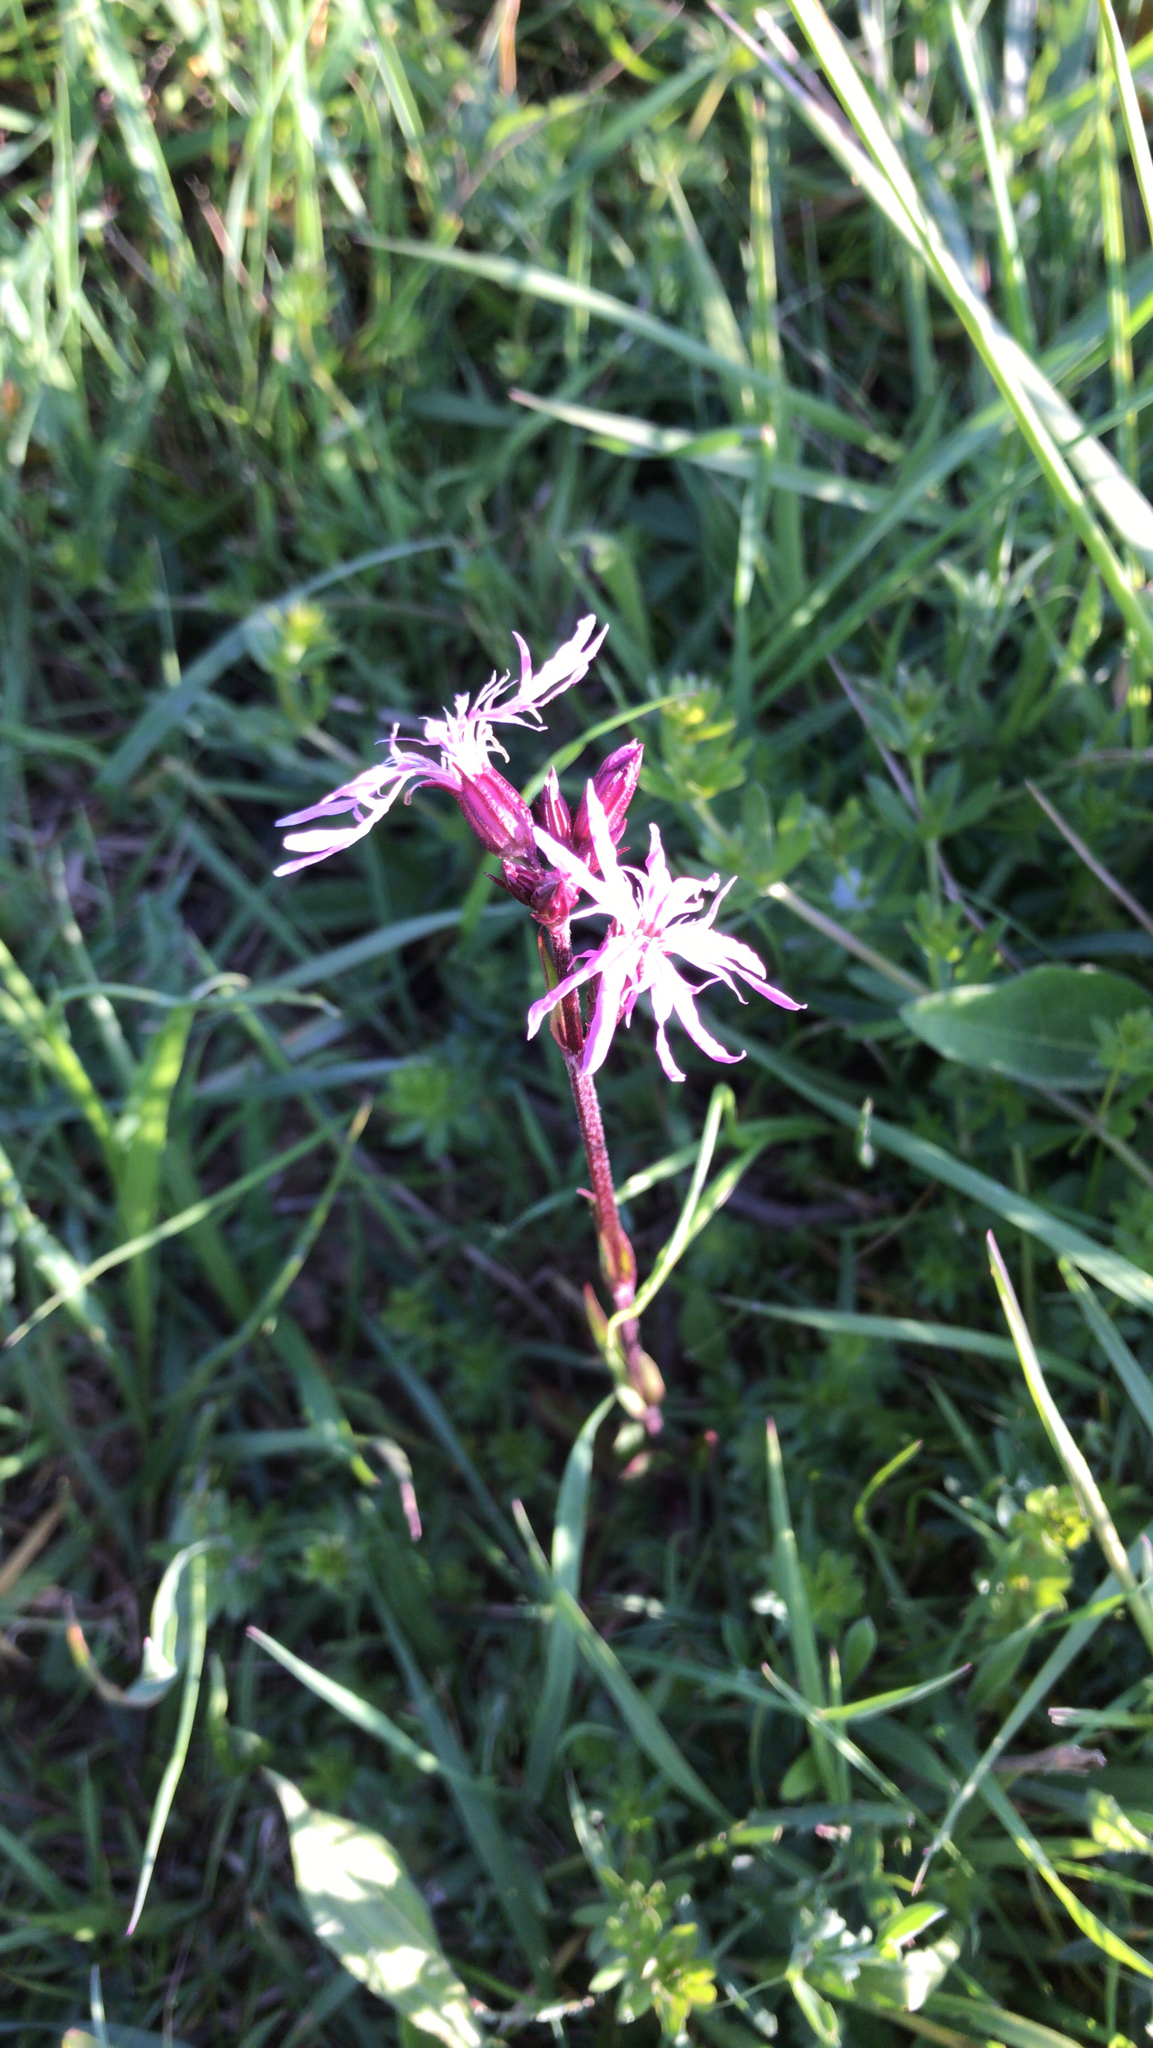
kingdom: Plantae
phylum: Tracheophyta
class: Magnoliopsida
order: Caryophyllales
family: Caryophyllaceae
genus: Silene
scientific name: Silene flos-cuculi
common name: Ragged-robin
